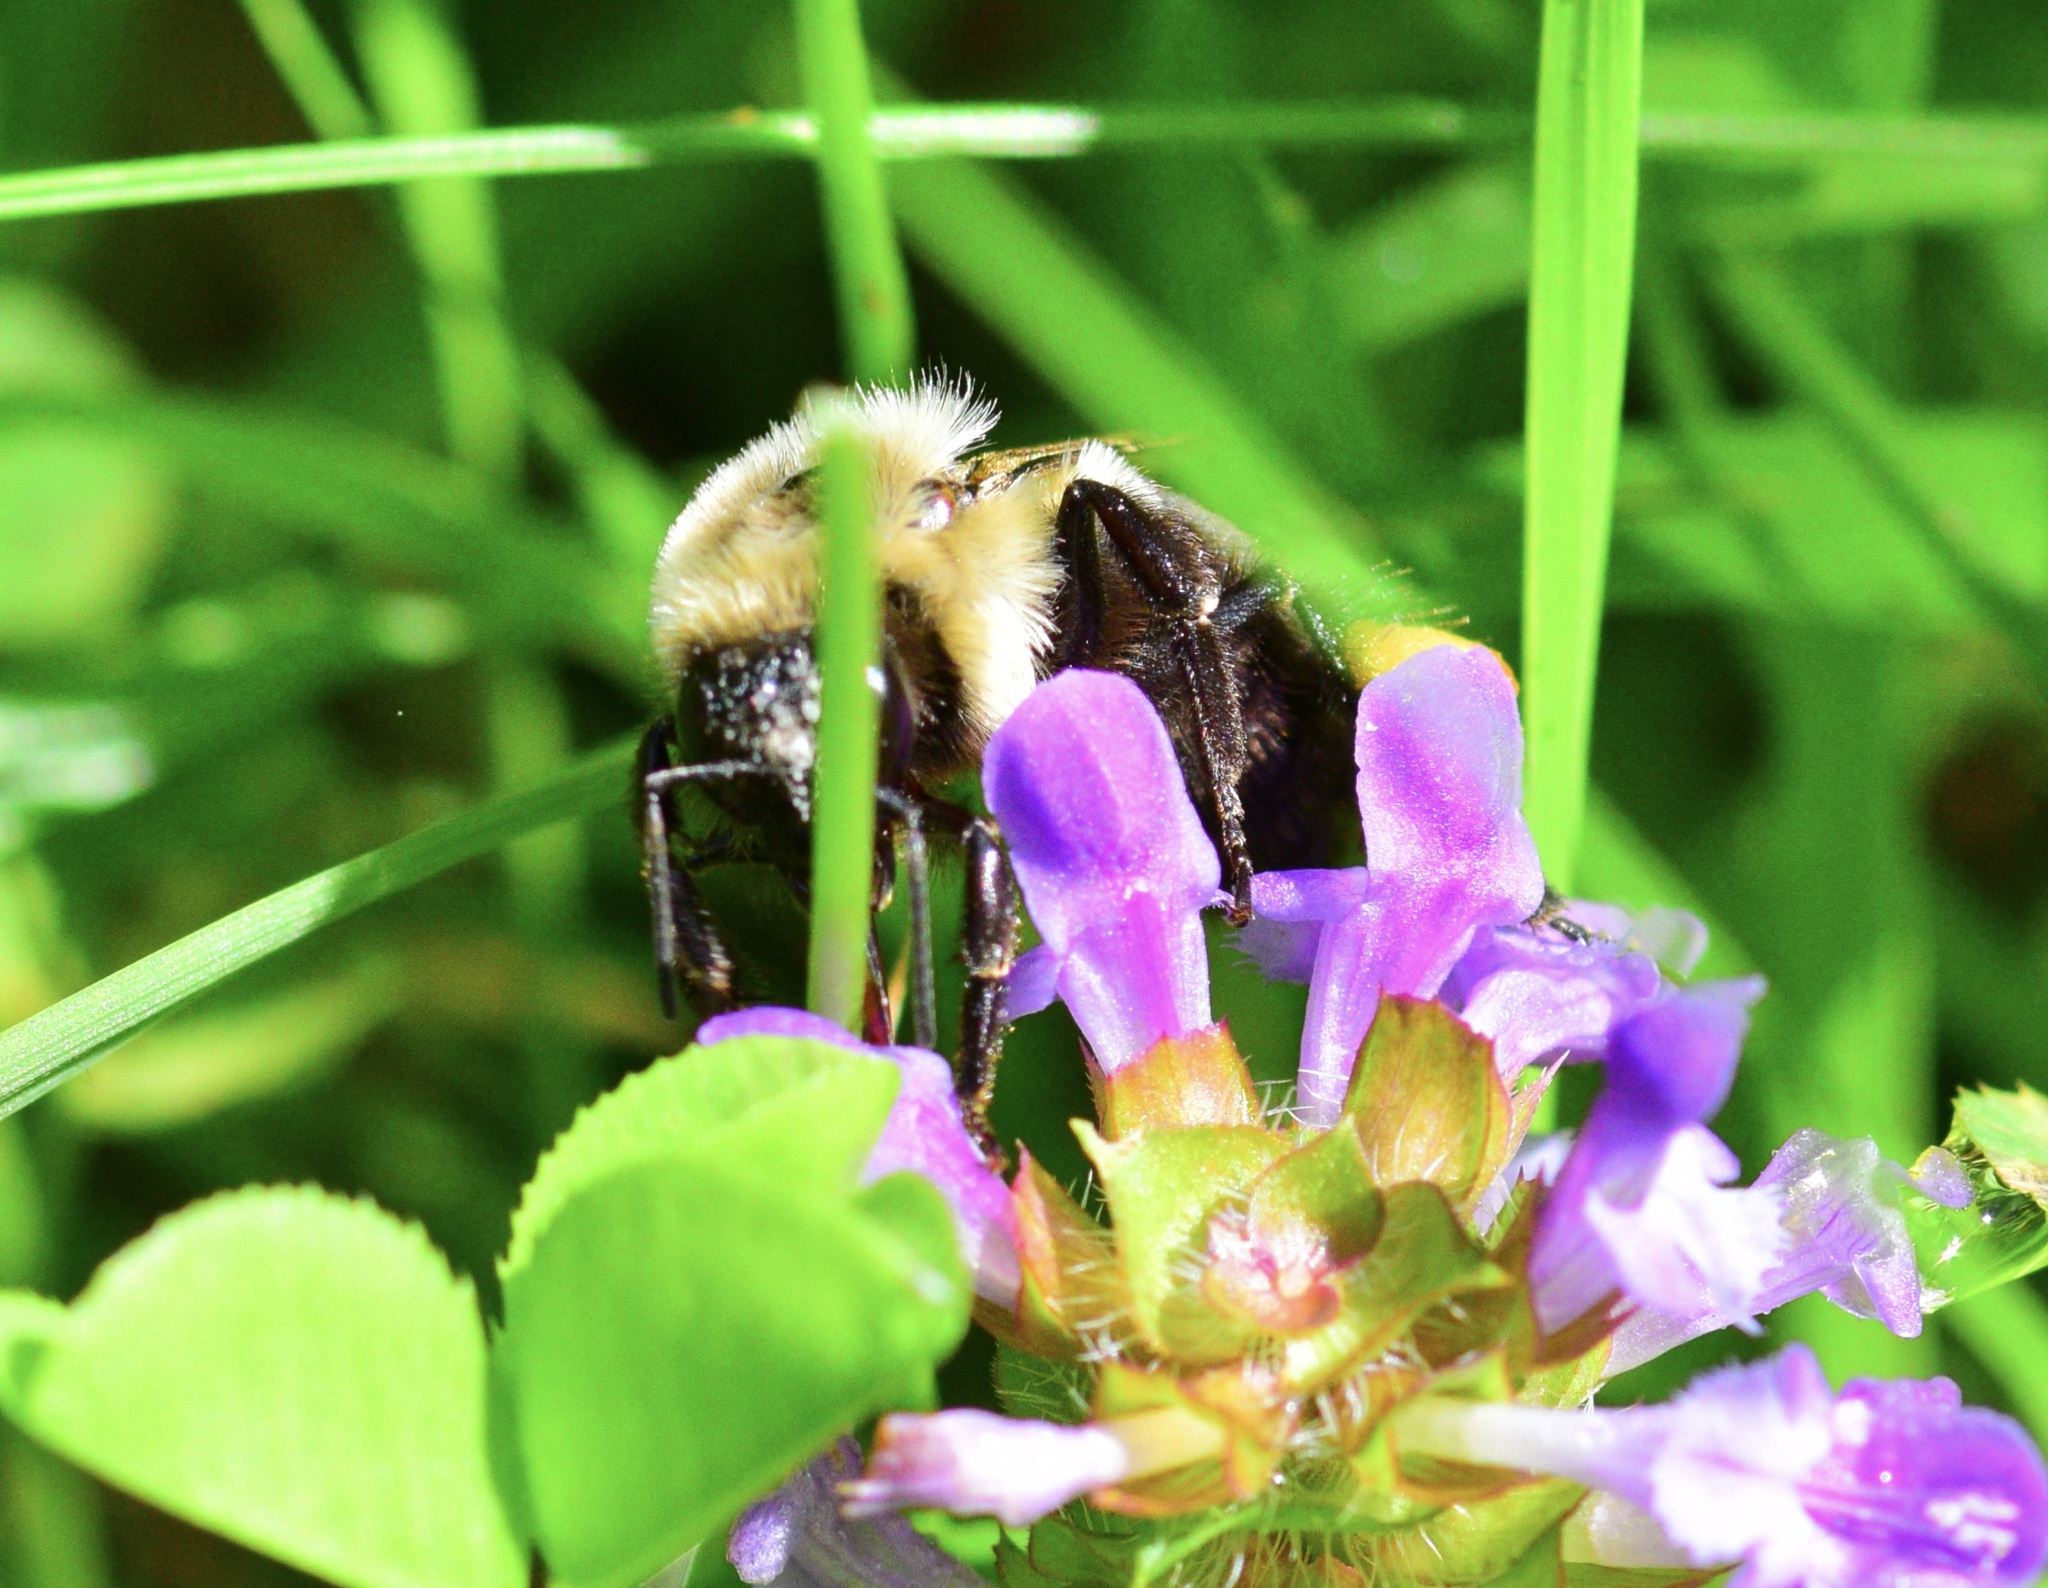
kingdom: Animalia
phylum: Arthropoda
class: Insecta
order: Hymenoptera
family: Apidae
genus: Bombus
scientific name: Bombus impatiens
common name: Common eastern bumble bee
